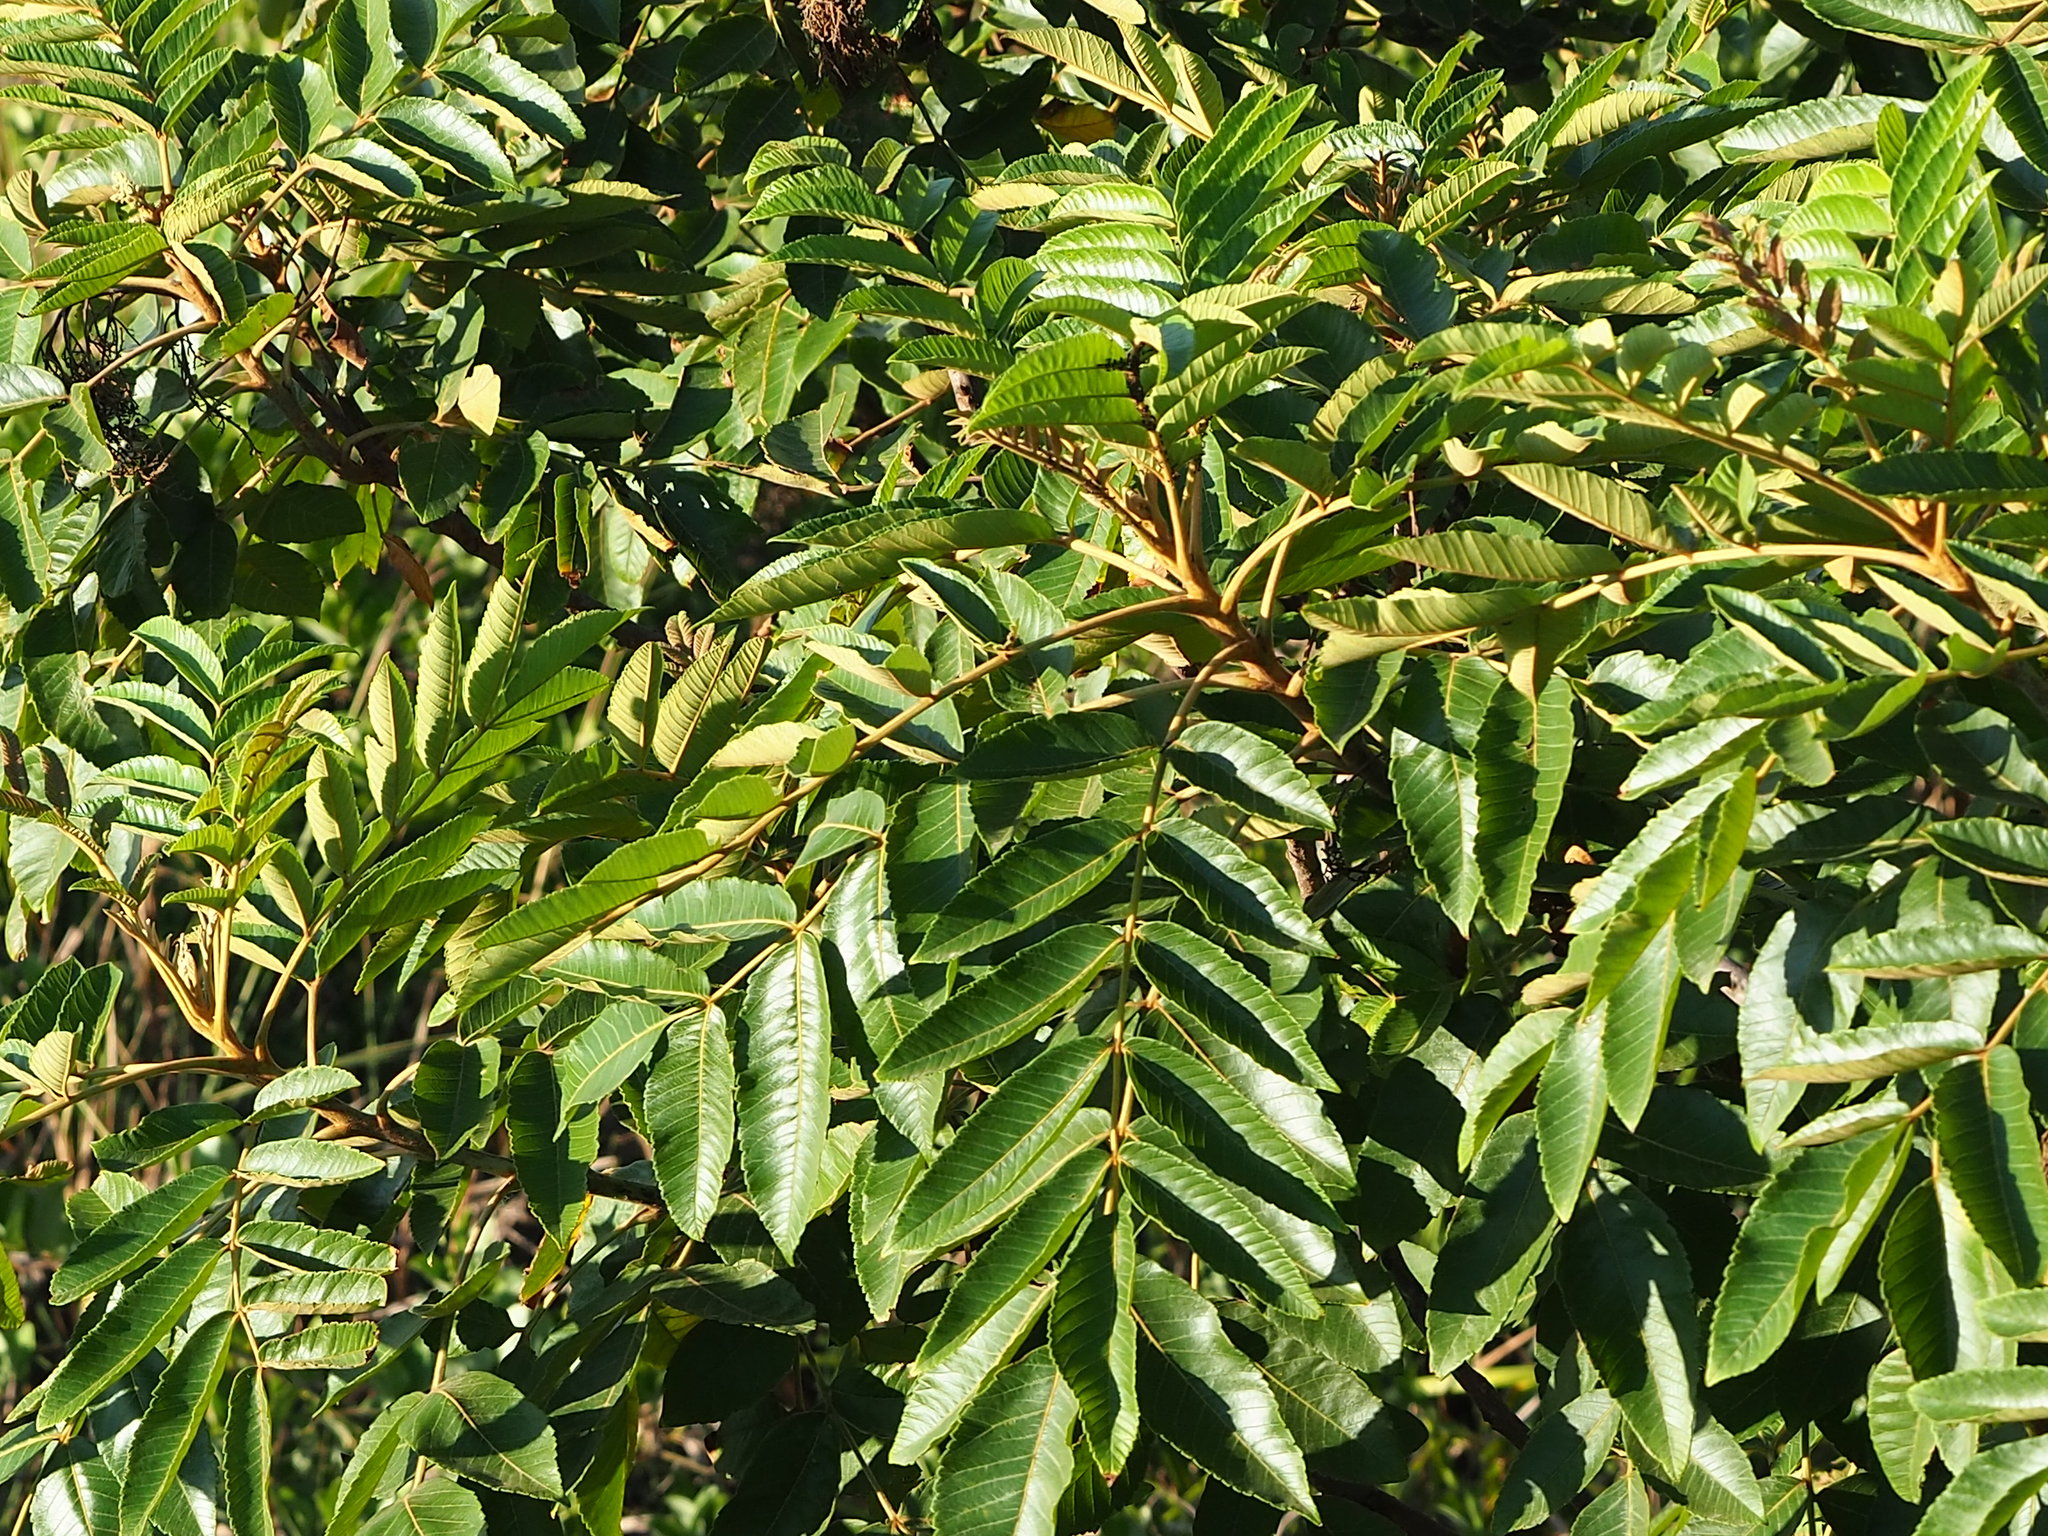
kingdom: Plantae
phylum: Tracheophyta
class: Magnoliopsida
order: Sapindales
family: Anacardiaceae
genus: Rhus
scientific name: Rhus chinensis
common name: Chinese gall
